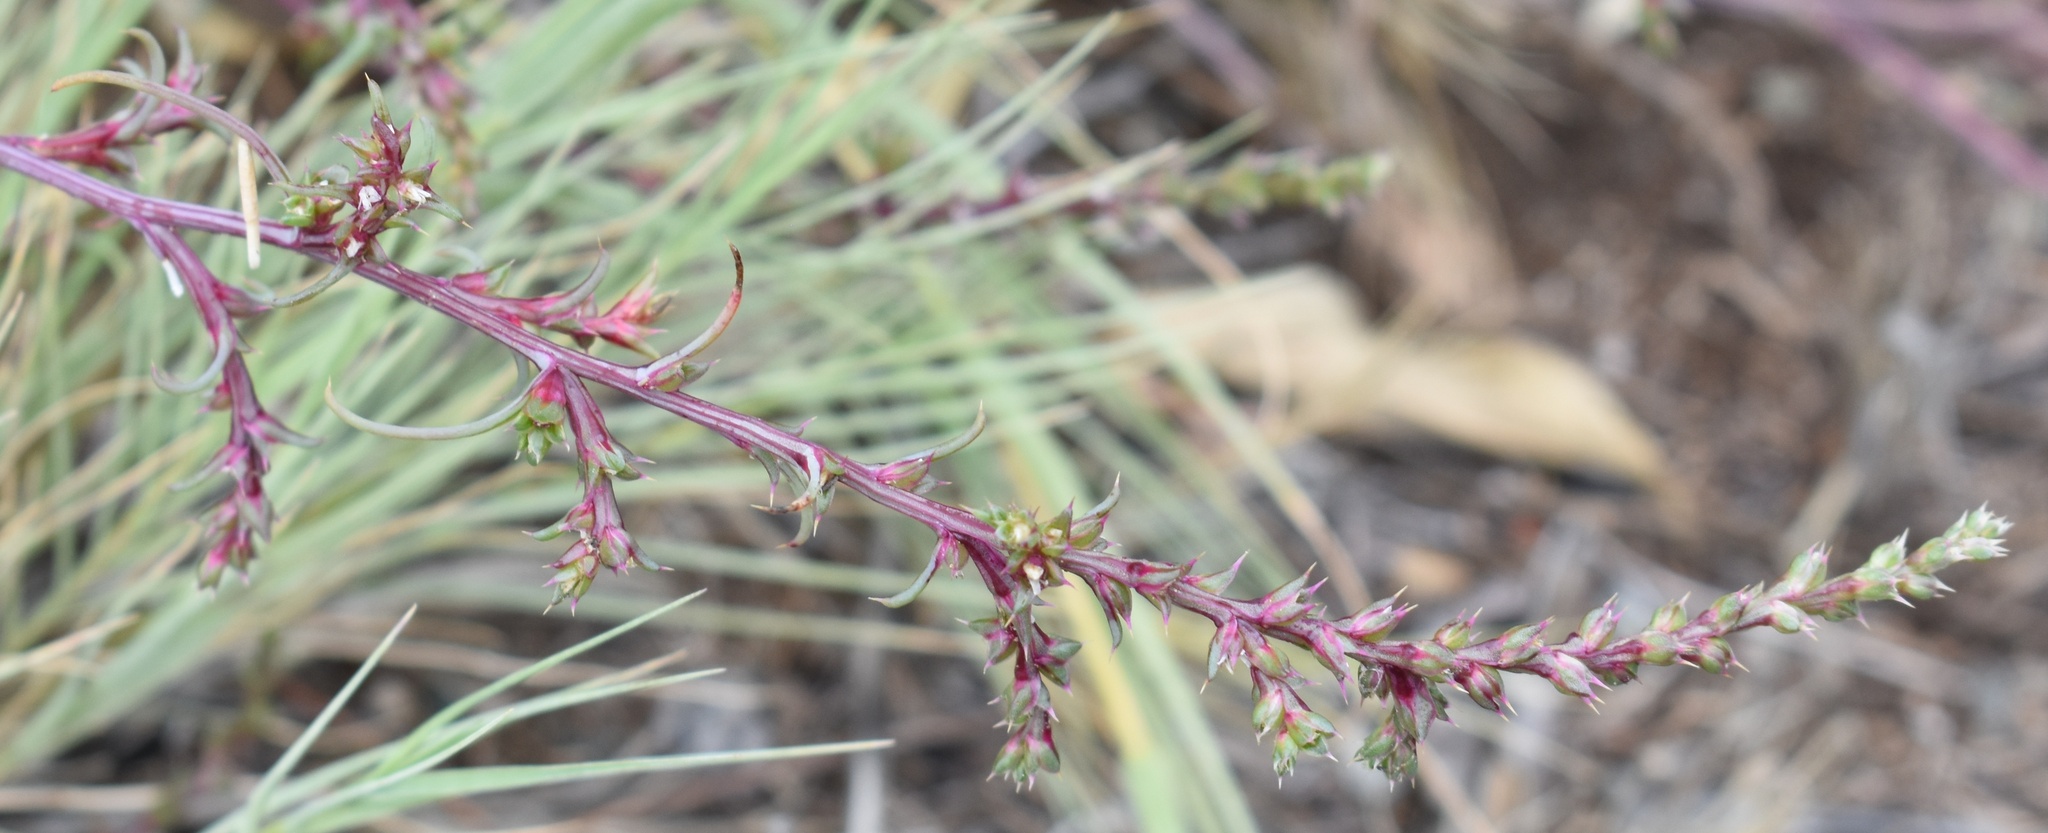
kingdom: Plantae
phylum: Tracheophyta
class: Magnoliopsida
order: Caryophyllales
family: Amaranthaceae
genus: Salsola
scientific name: Salsola tragus
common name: Prickly russian thistle
